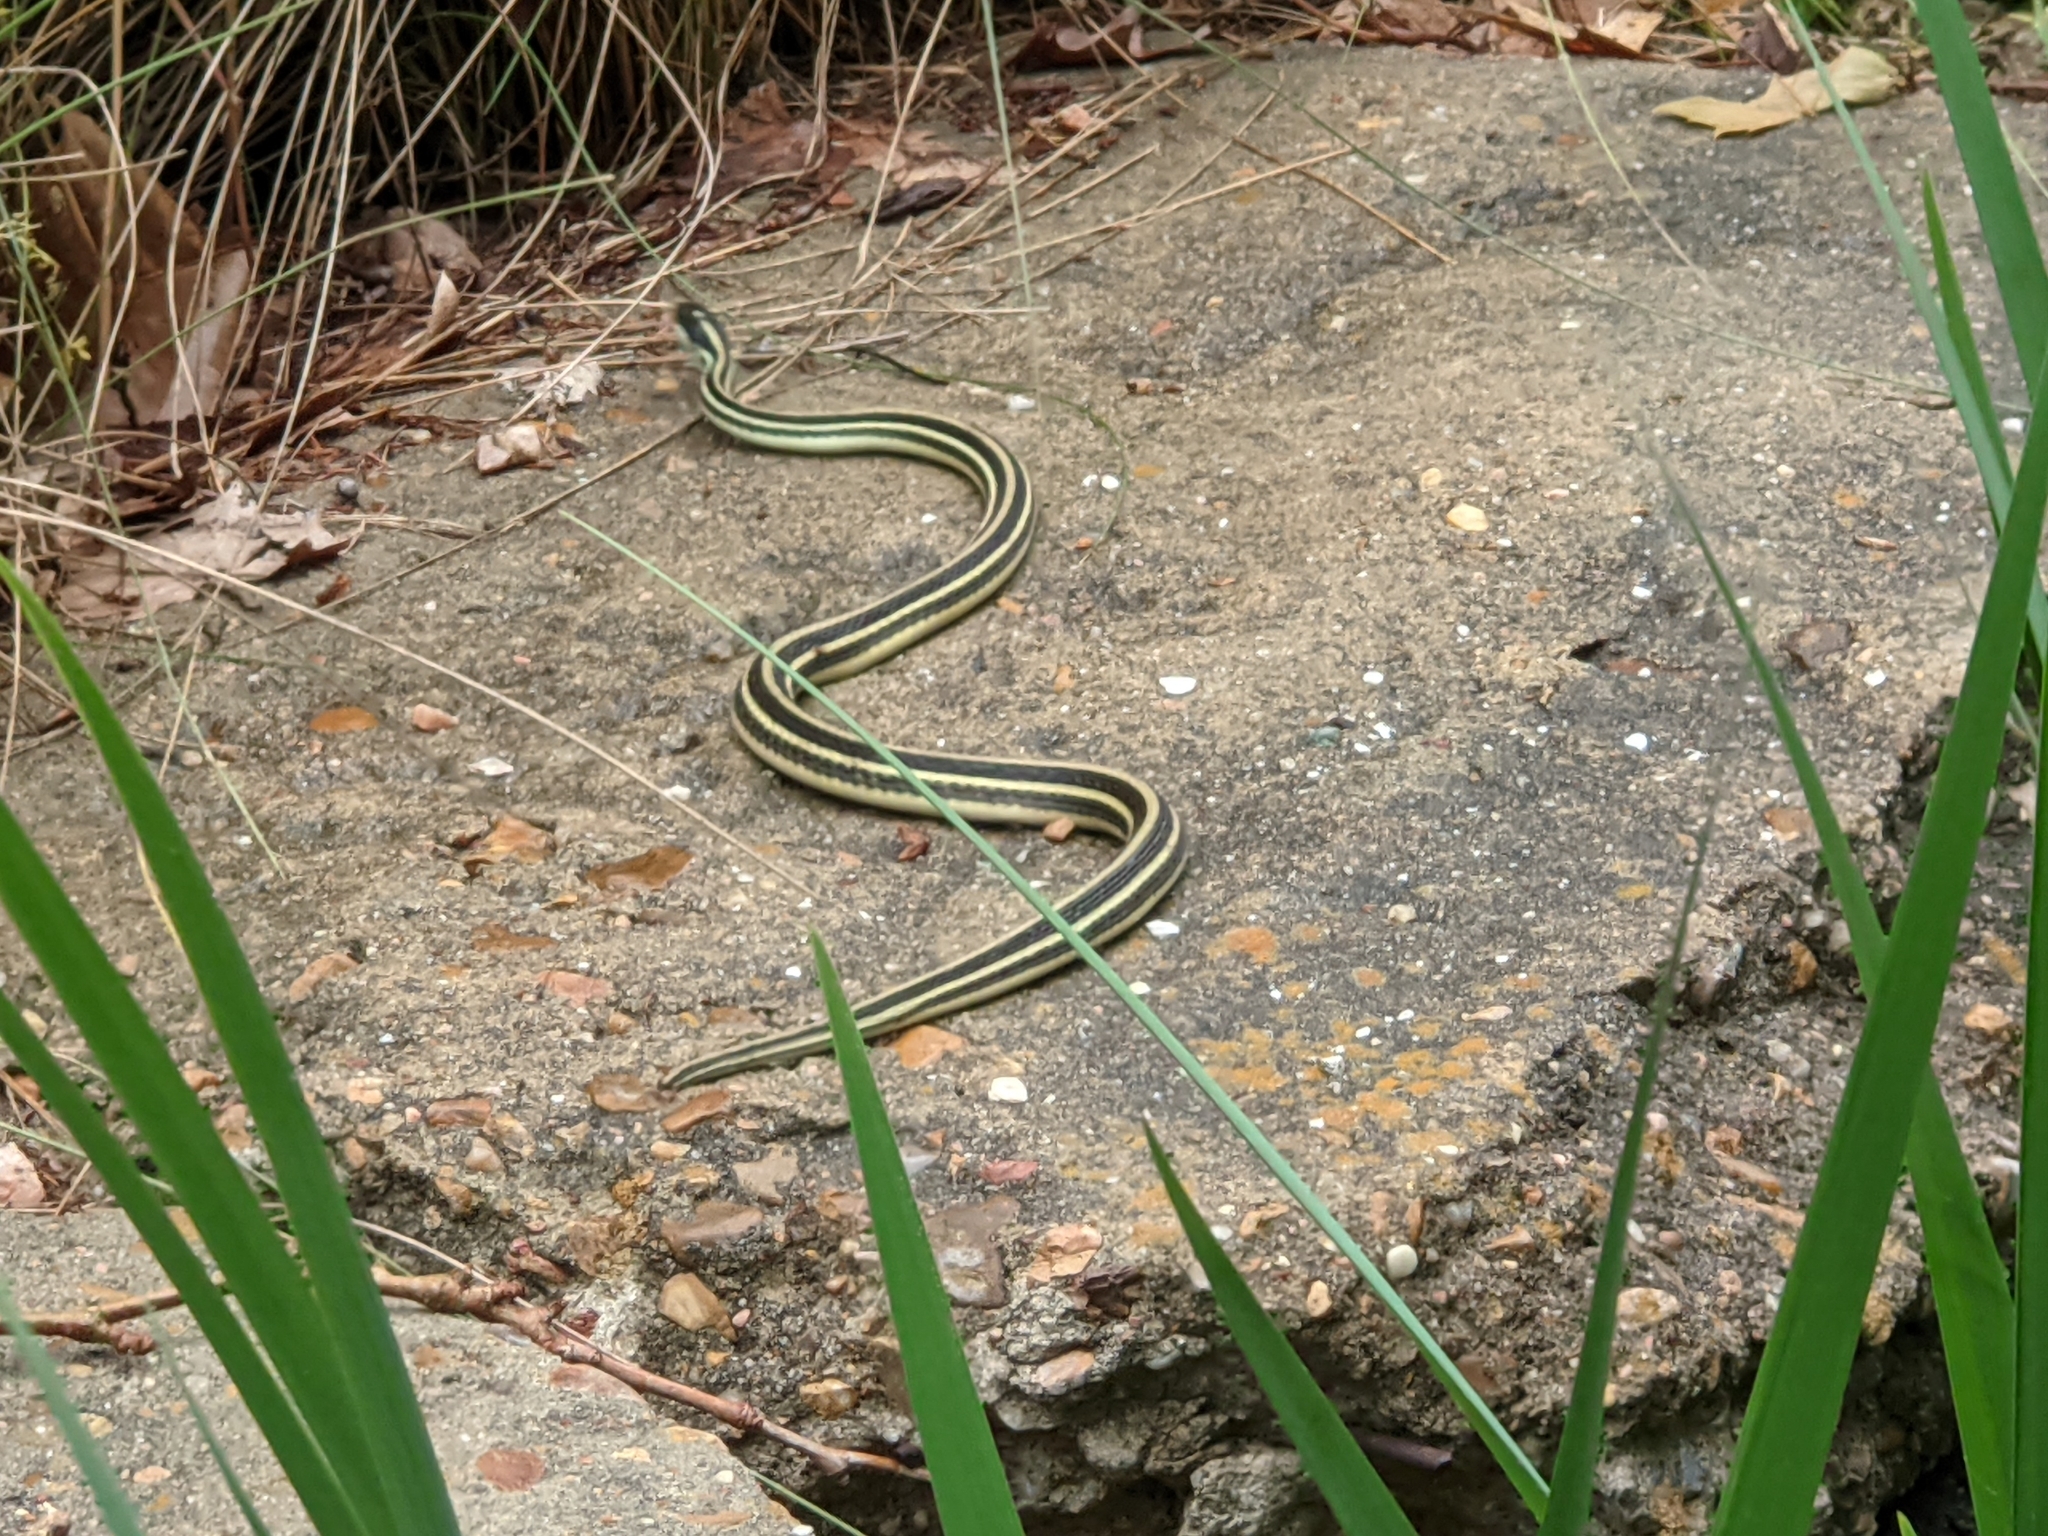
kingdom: Animalia
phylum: Chordata
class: Squamata
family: Colubridae
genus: Thamnophis
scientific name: Thamnophis proximus
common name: Western ribbon snake
